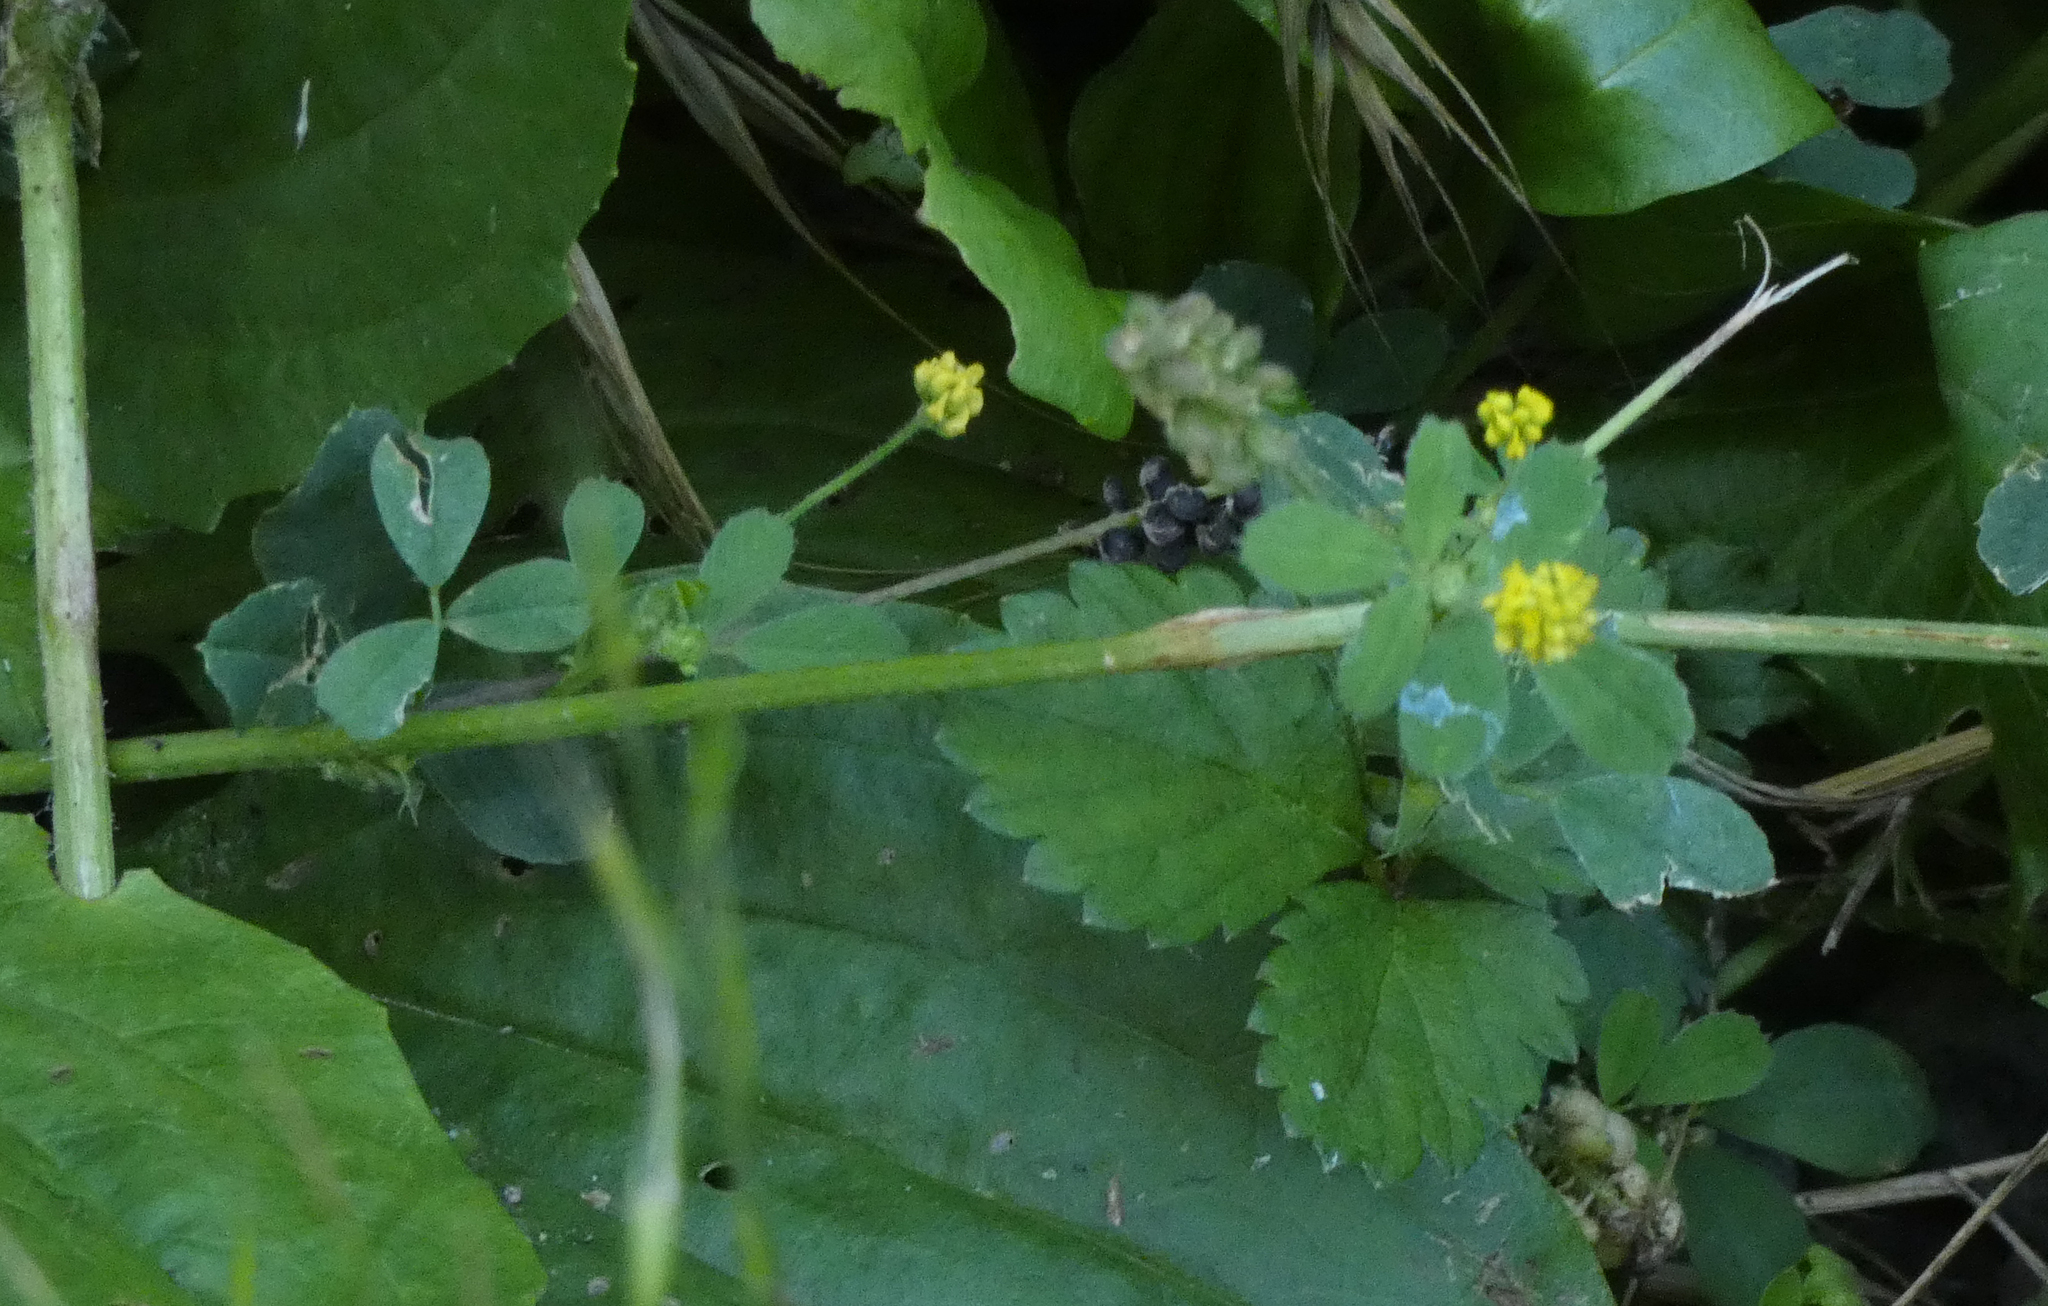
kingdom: Plantae
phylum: Tracheophyta
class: Magnoliopsida
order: Fabales
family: Fabaceae
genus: Medicago
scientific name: Medicago lupulina
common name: Black medick
